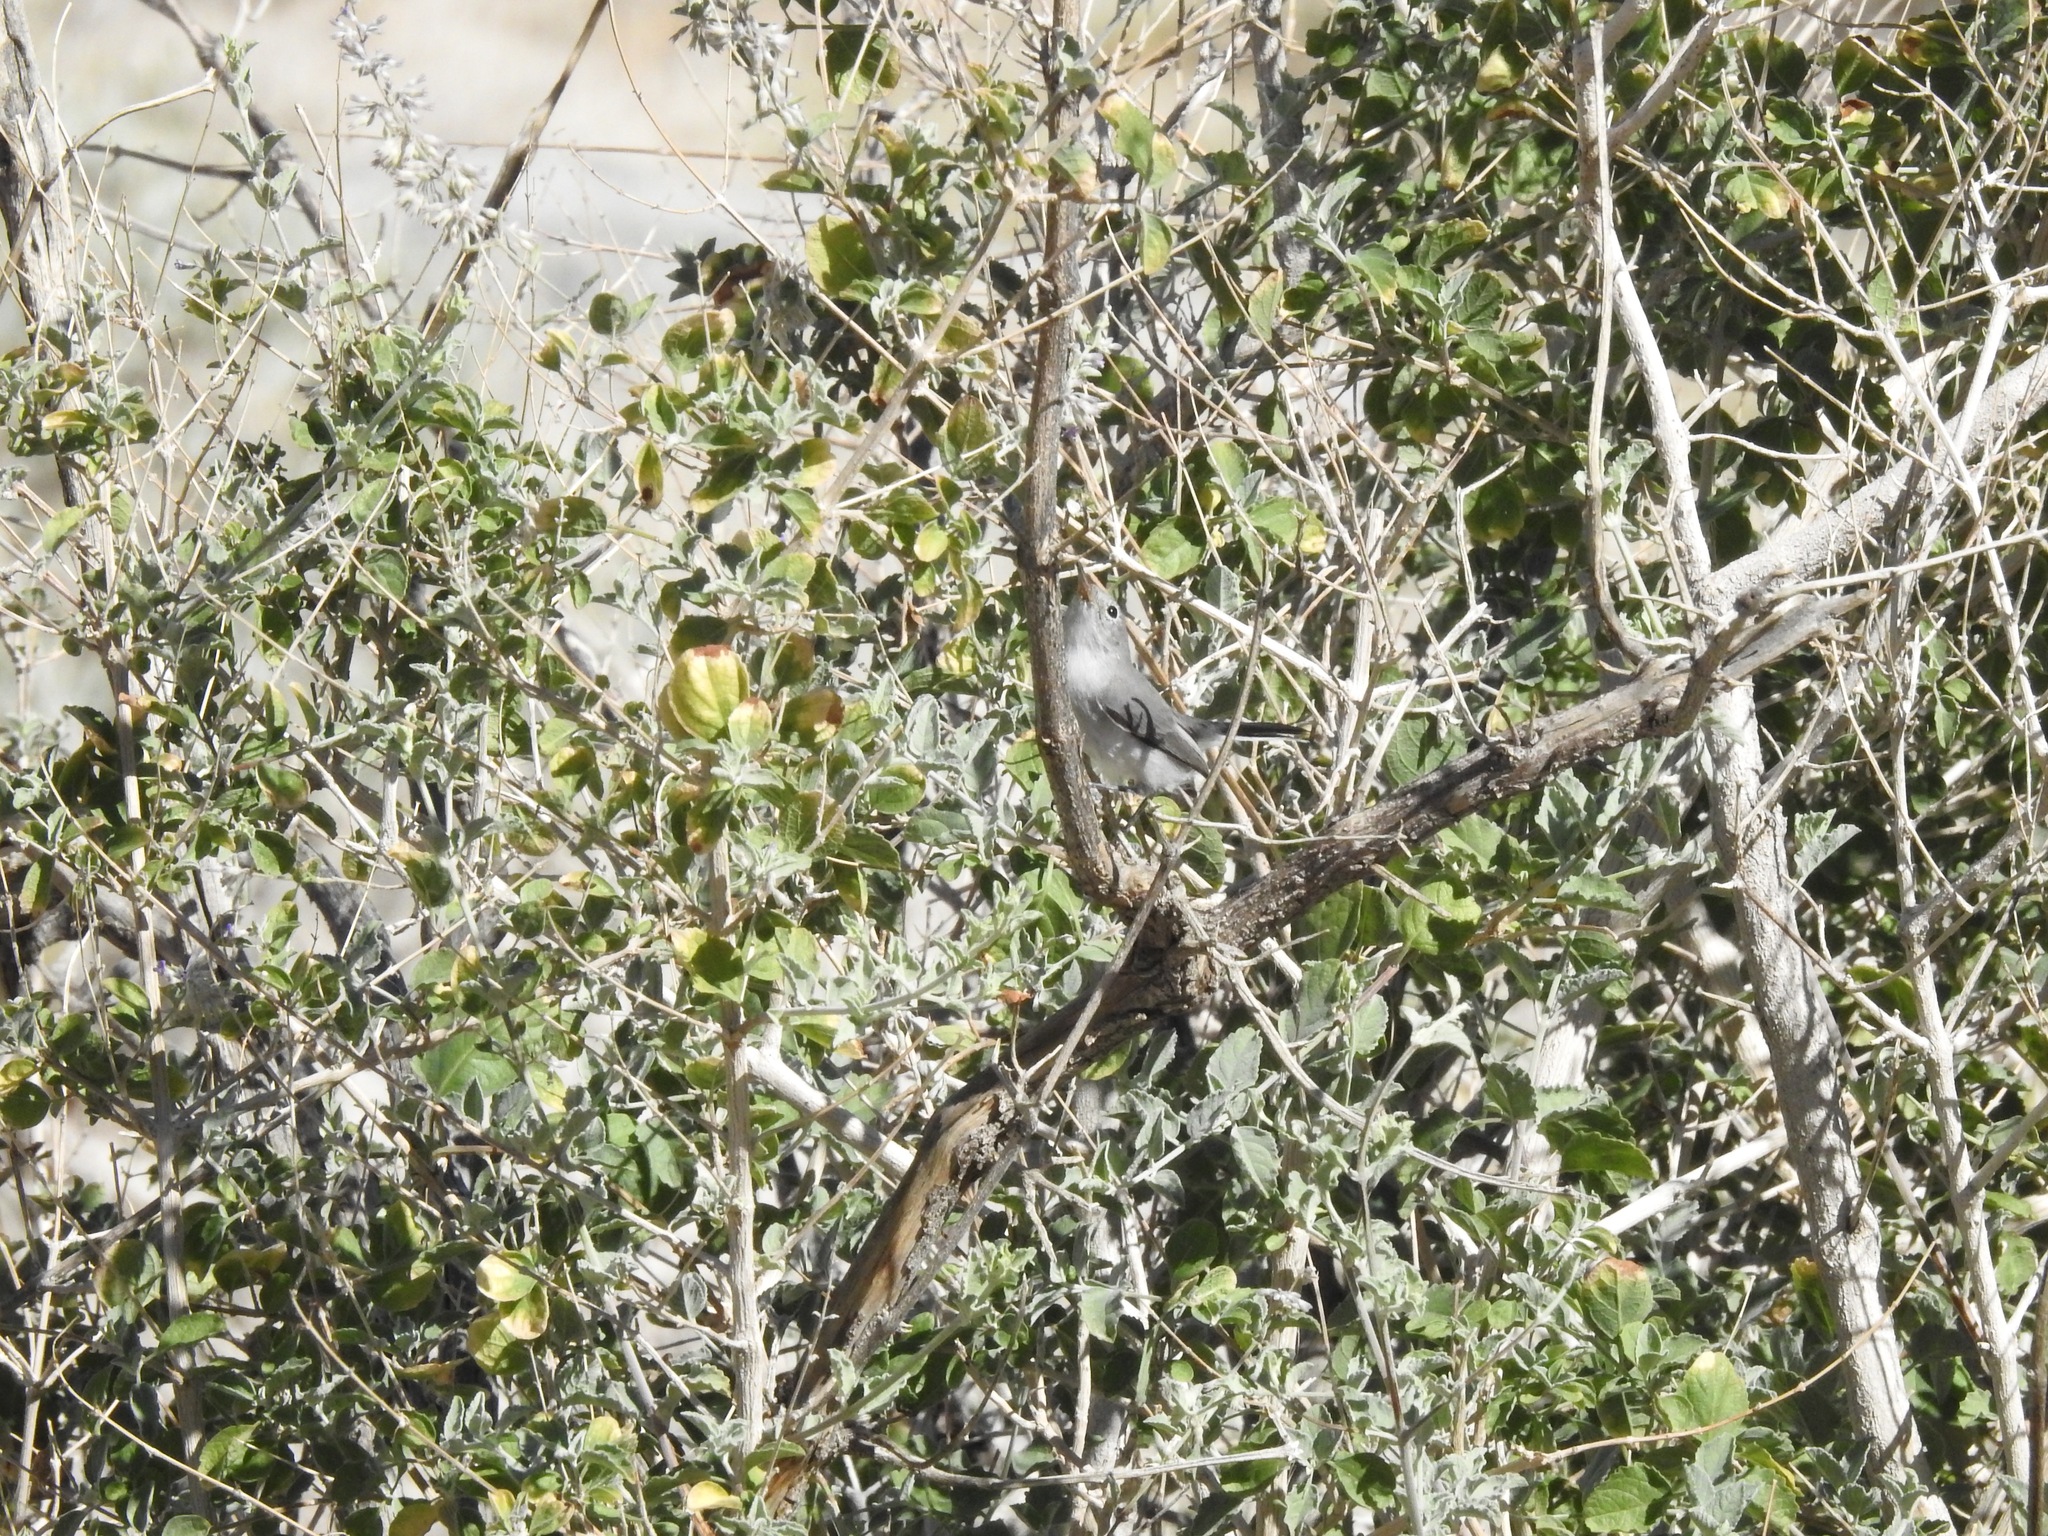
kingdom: Animalia
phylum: Chordata
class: Aves
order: Passeriformes
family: Polioptilidae
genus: Polioptila
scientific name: Polioptila melanura
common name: Black-tailed gnatcatcher
